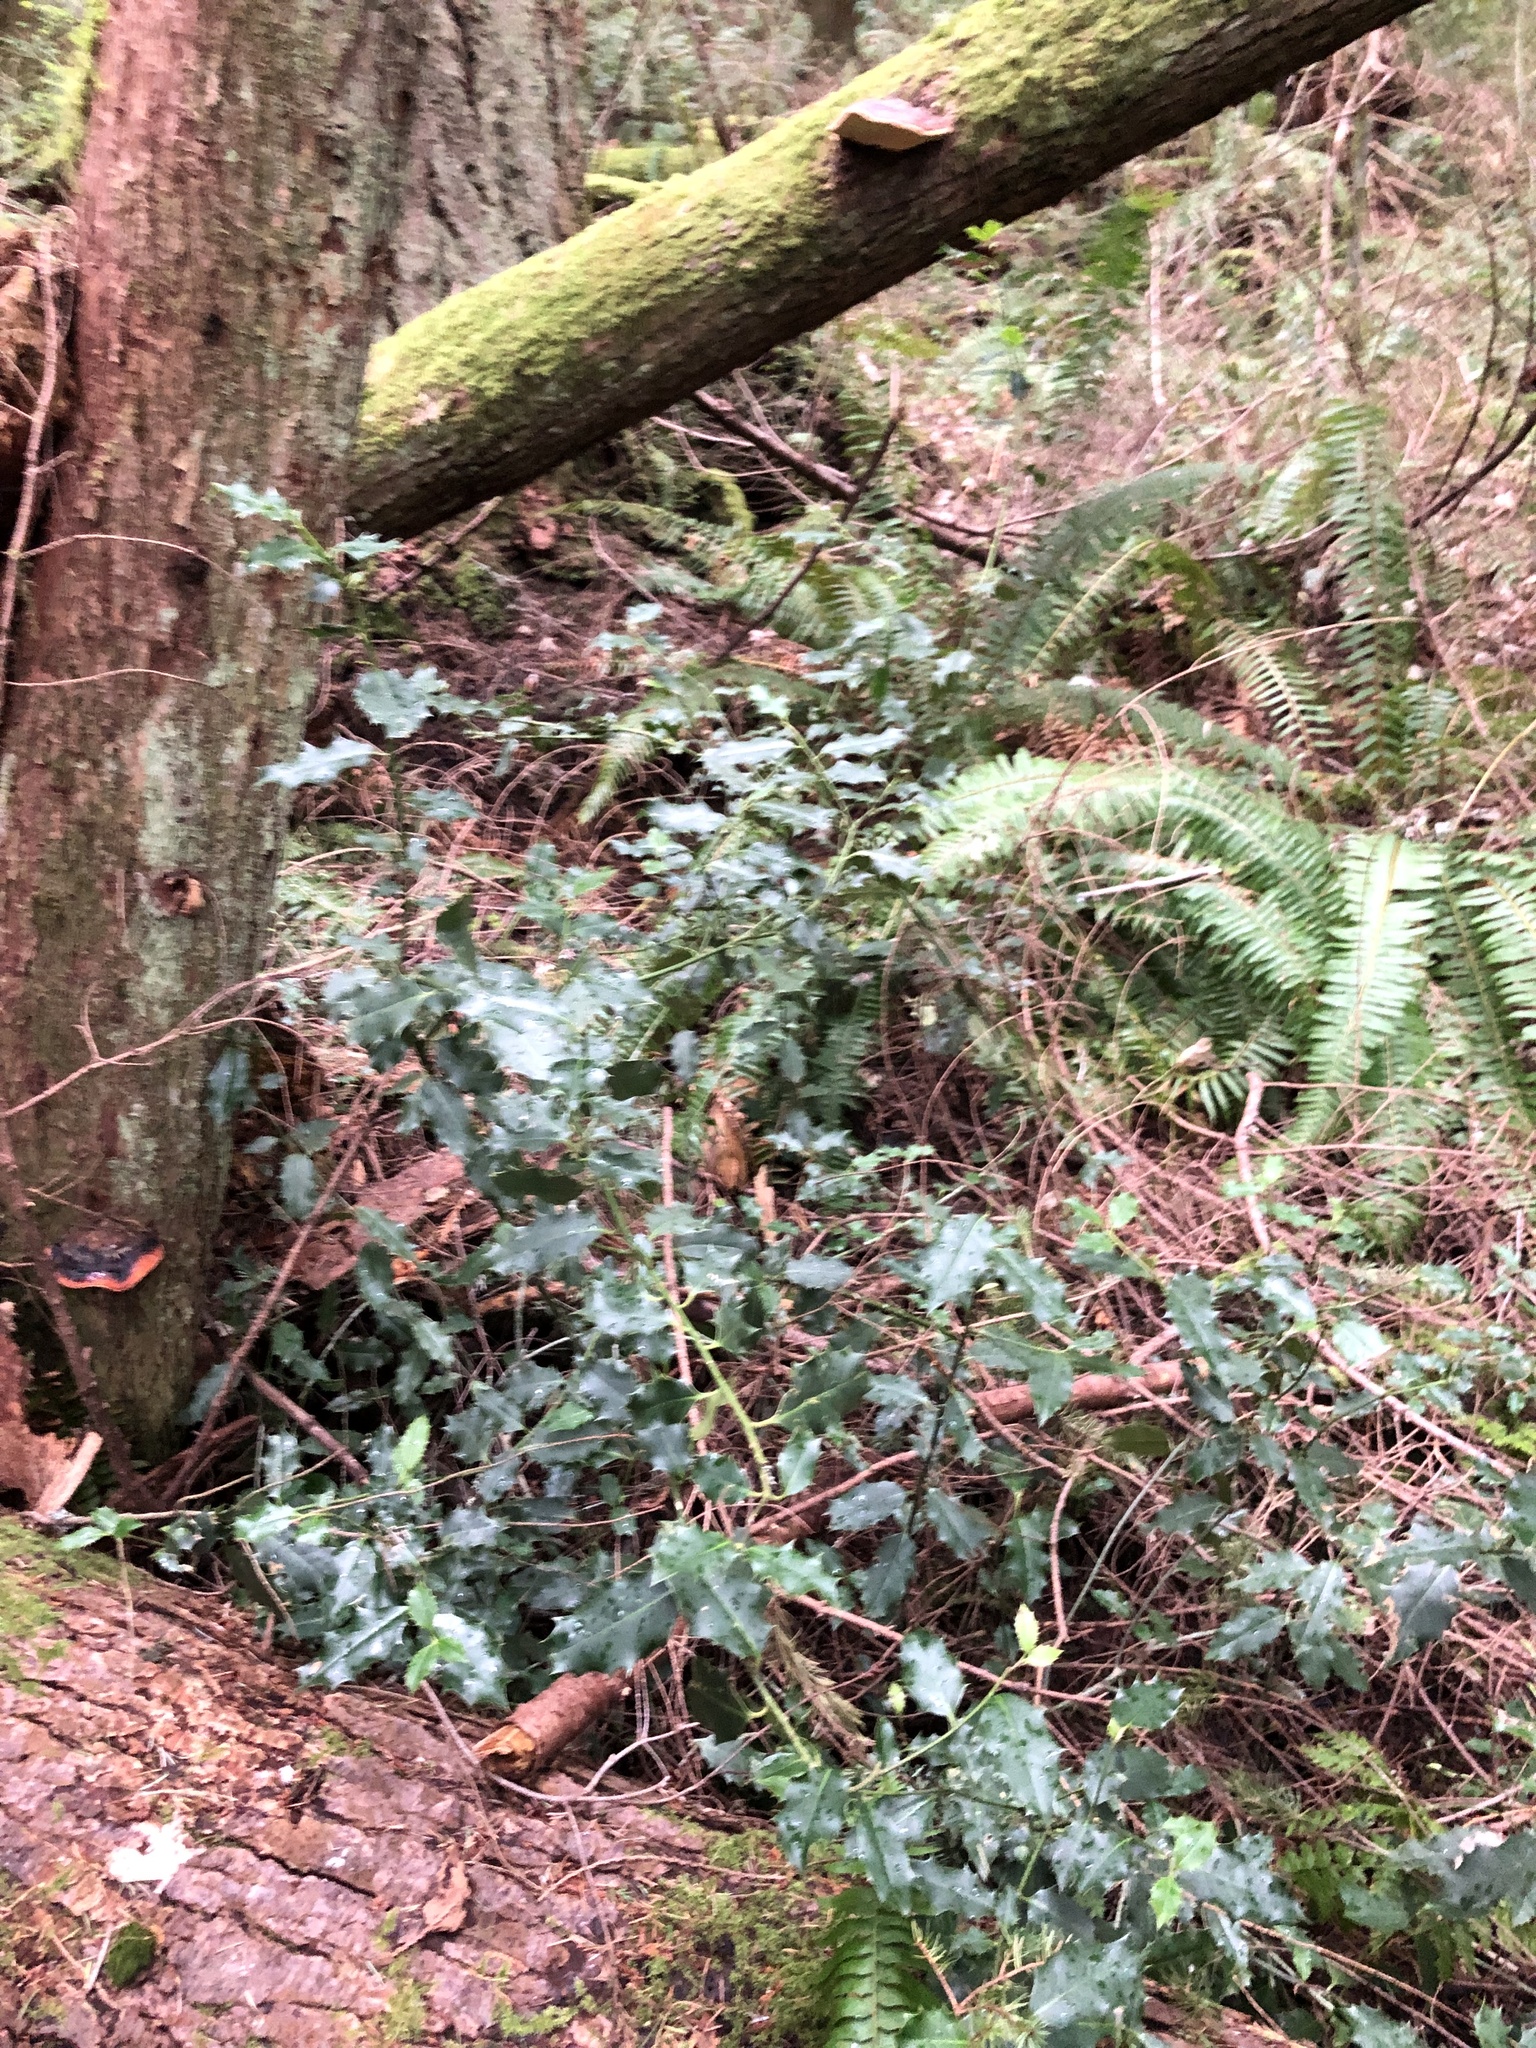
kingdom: Plantae
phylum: Tracheophyta
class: Magnoliopsida
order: Aquifoliales
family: Aquifoliaceae
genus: Ilex
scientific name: Ilex aquifolium
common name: English holly
